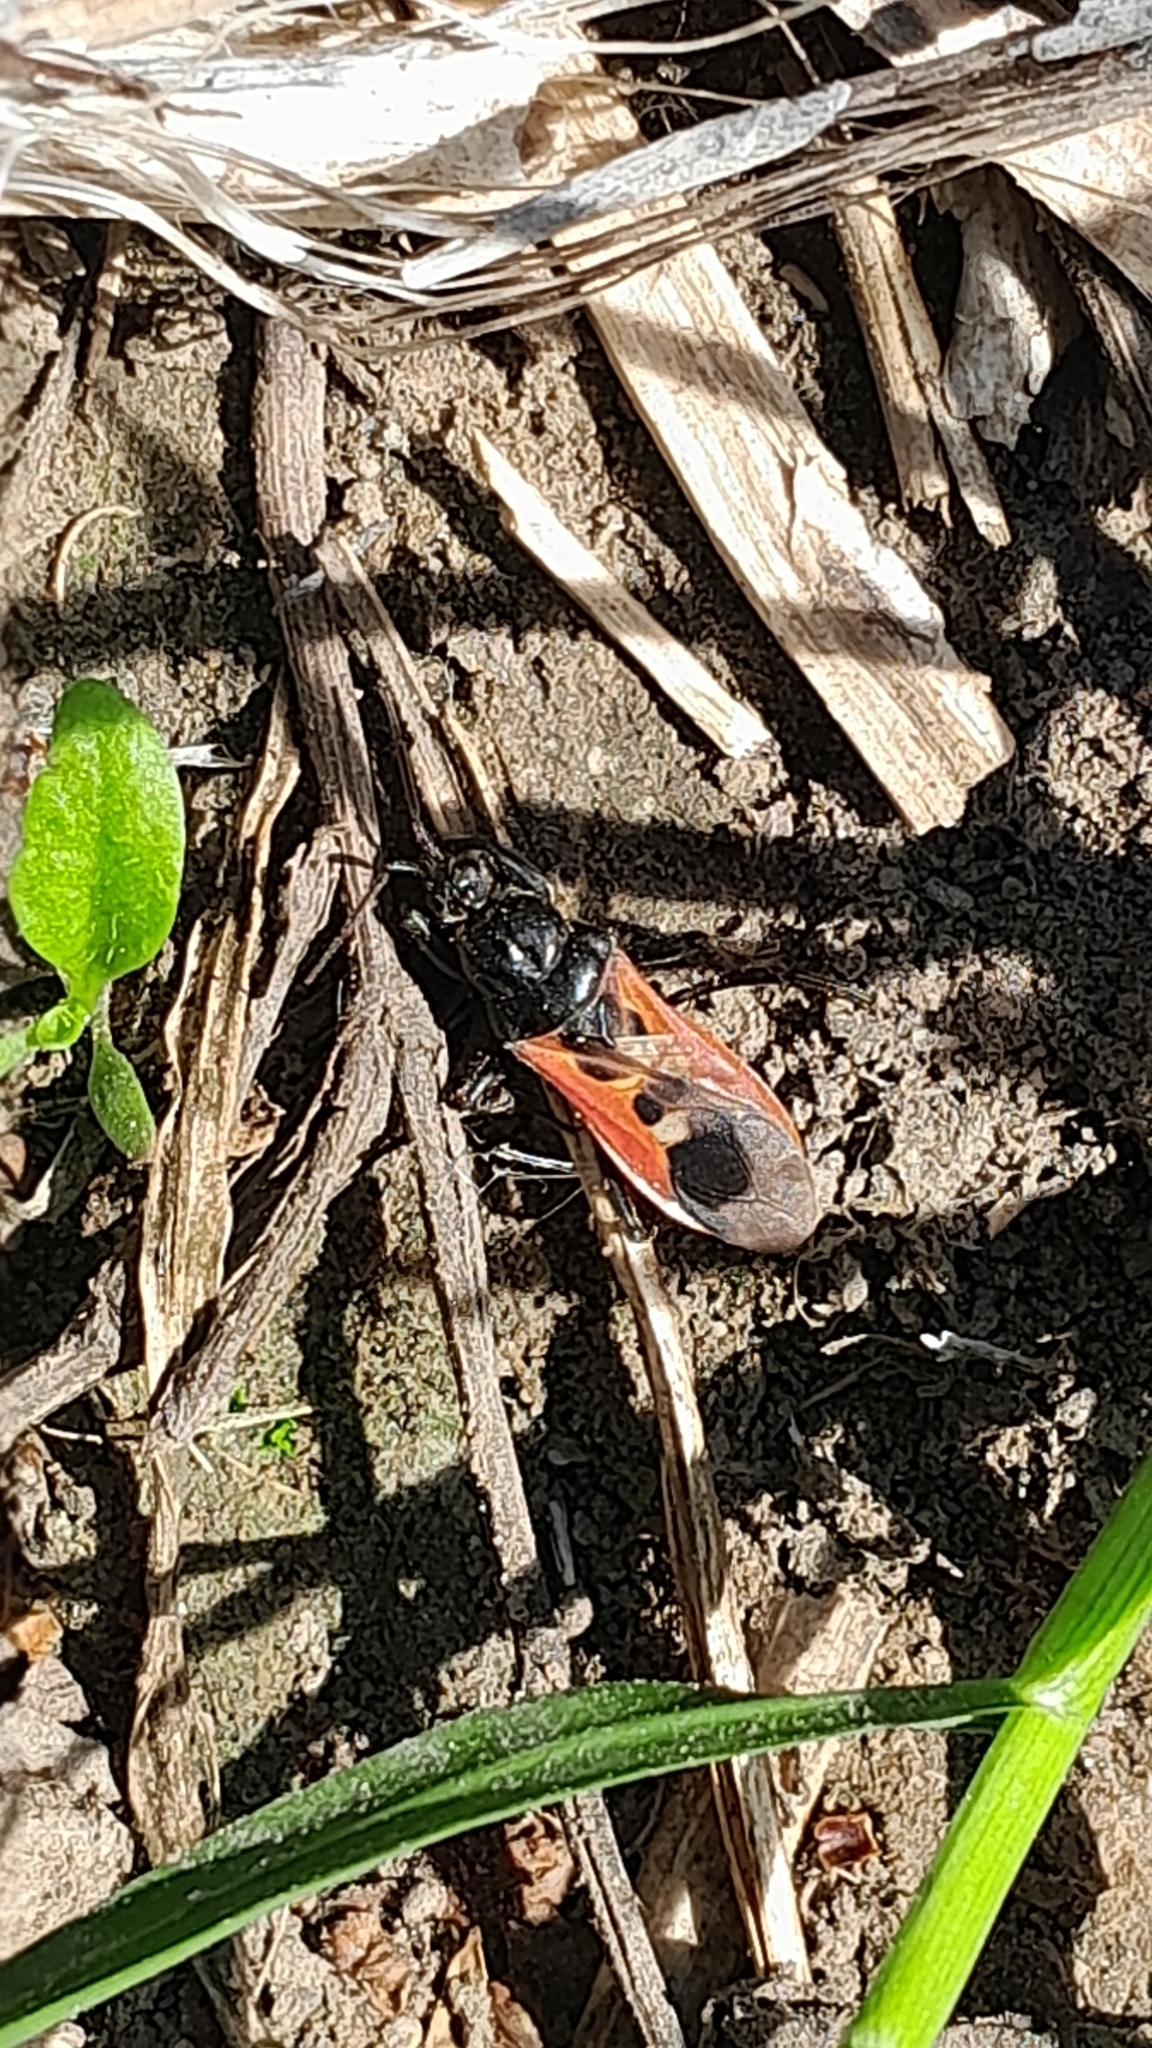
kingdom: Animalia
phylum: Arthropoda
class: Insecta
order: Hemiptera
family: Reduviidae
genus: Peirates
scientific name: Peirates hybridus
